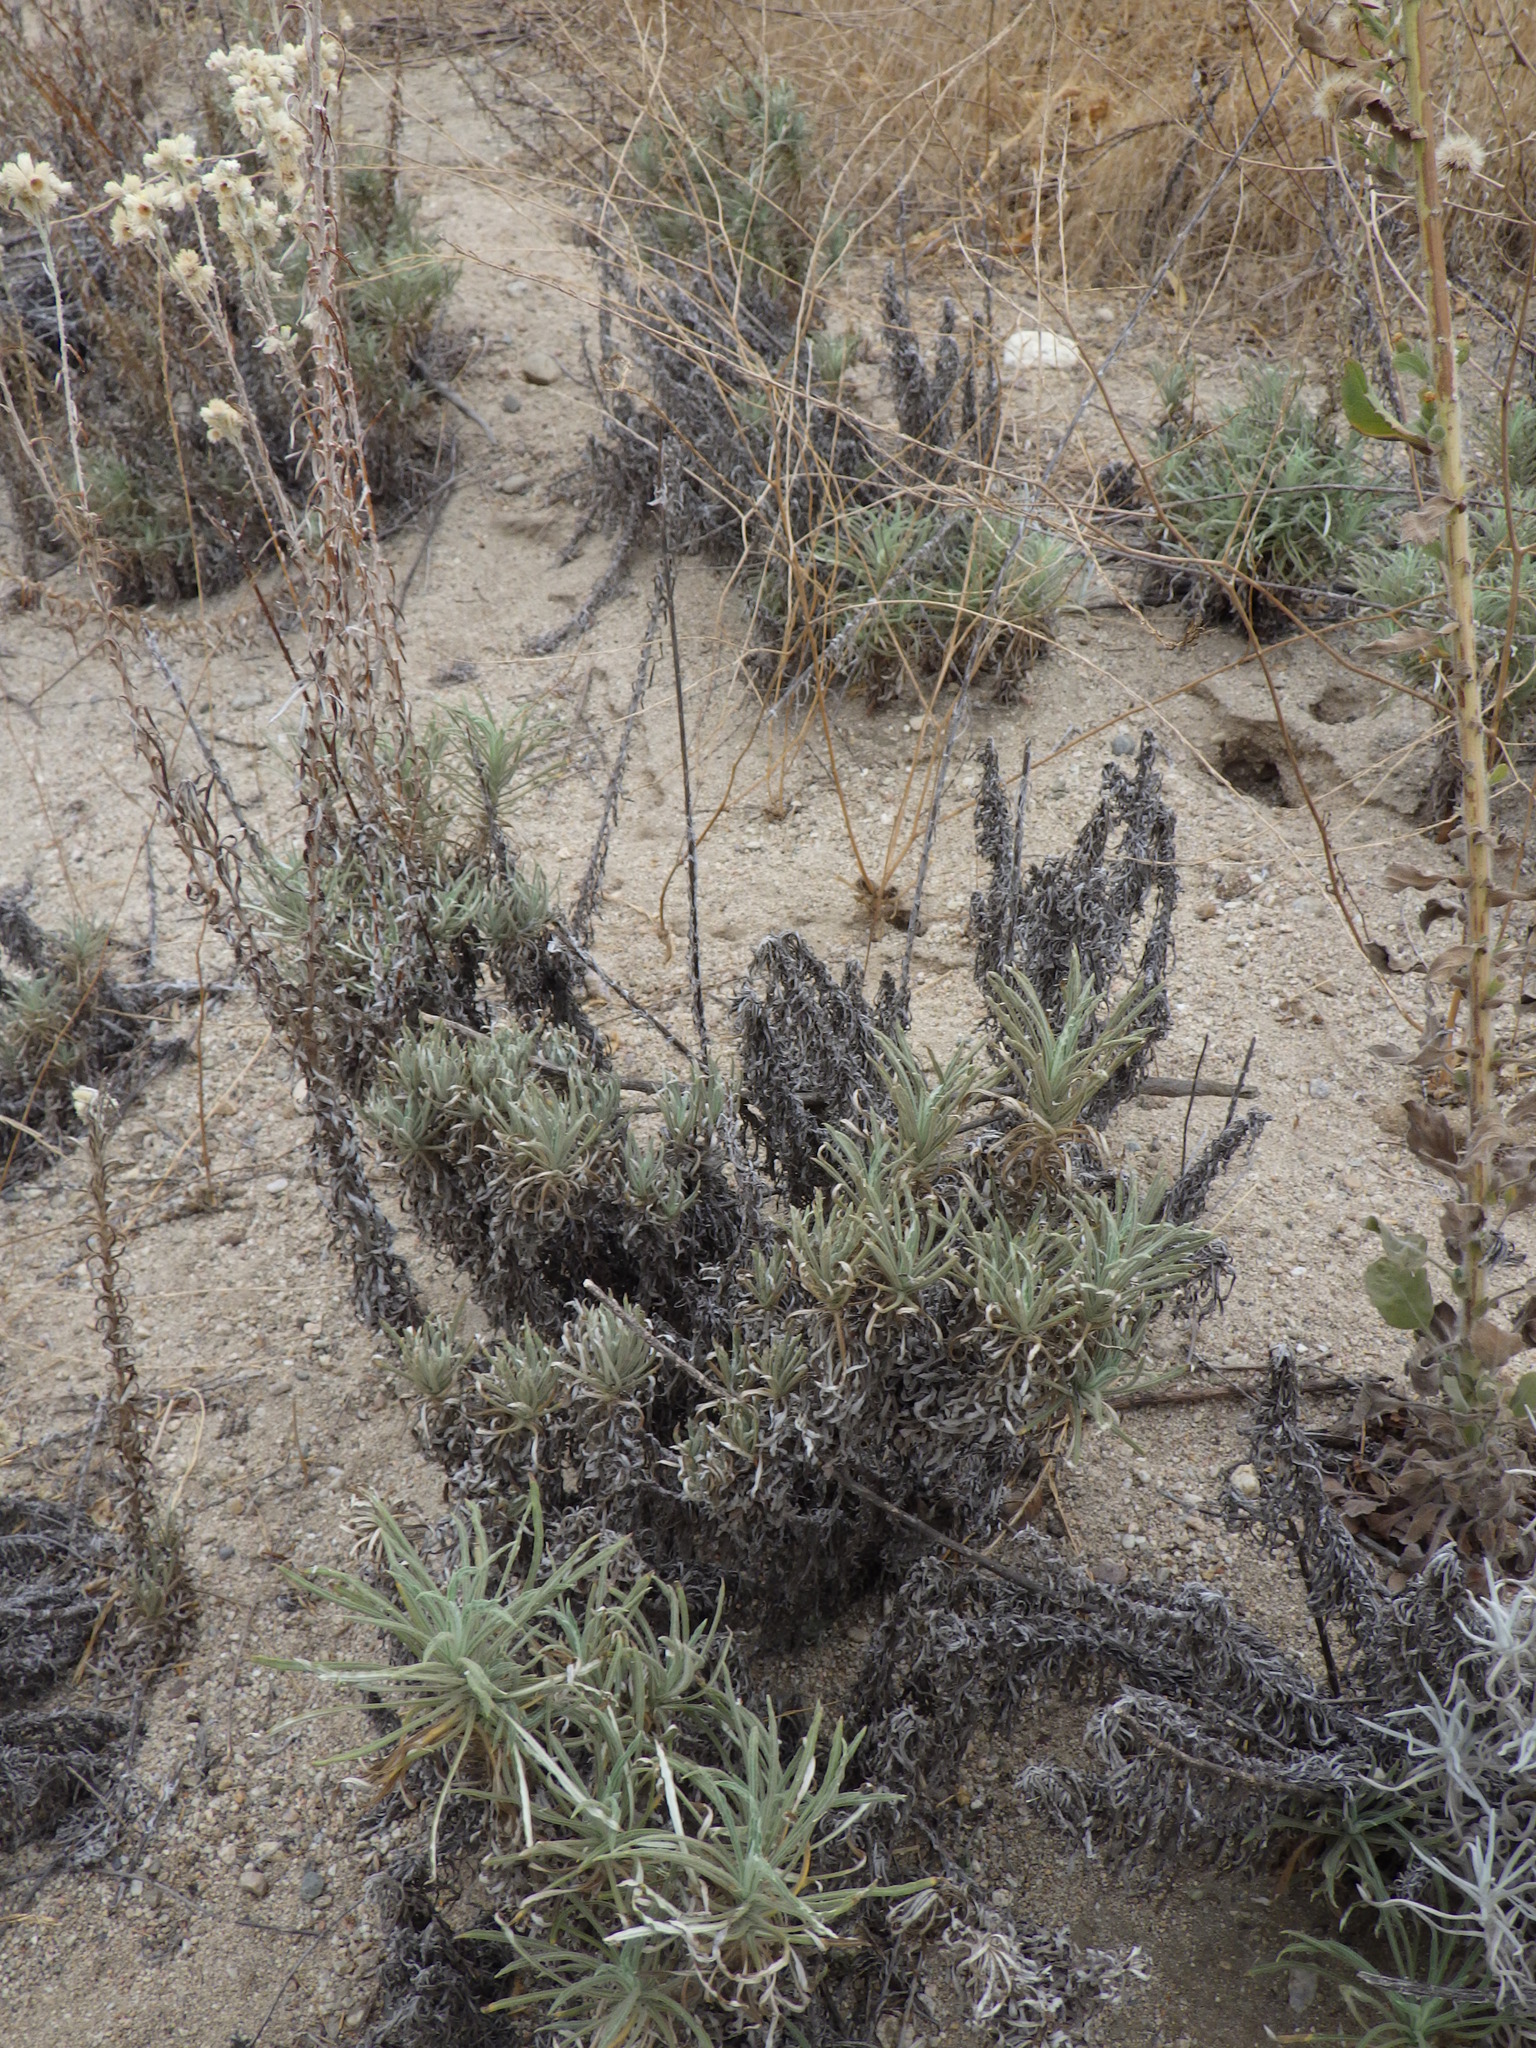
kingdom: Plantae
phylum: Tracheophyta
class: Magnoliopsida
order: Asterales
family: Asteraceae
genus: Pseudognaphalium
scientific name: Pseudognaphalium leucocephalum
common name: White cudweed
